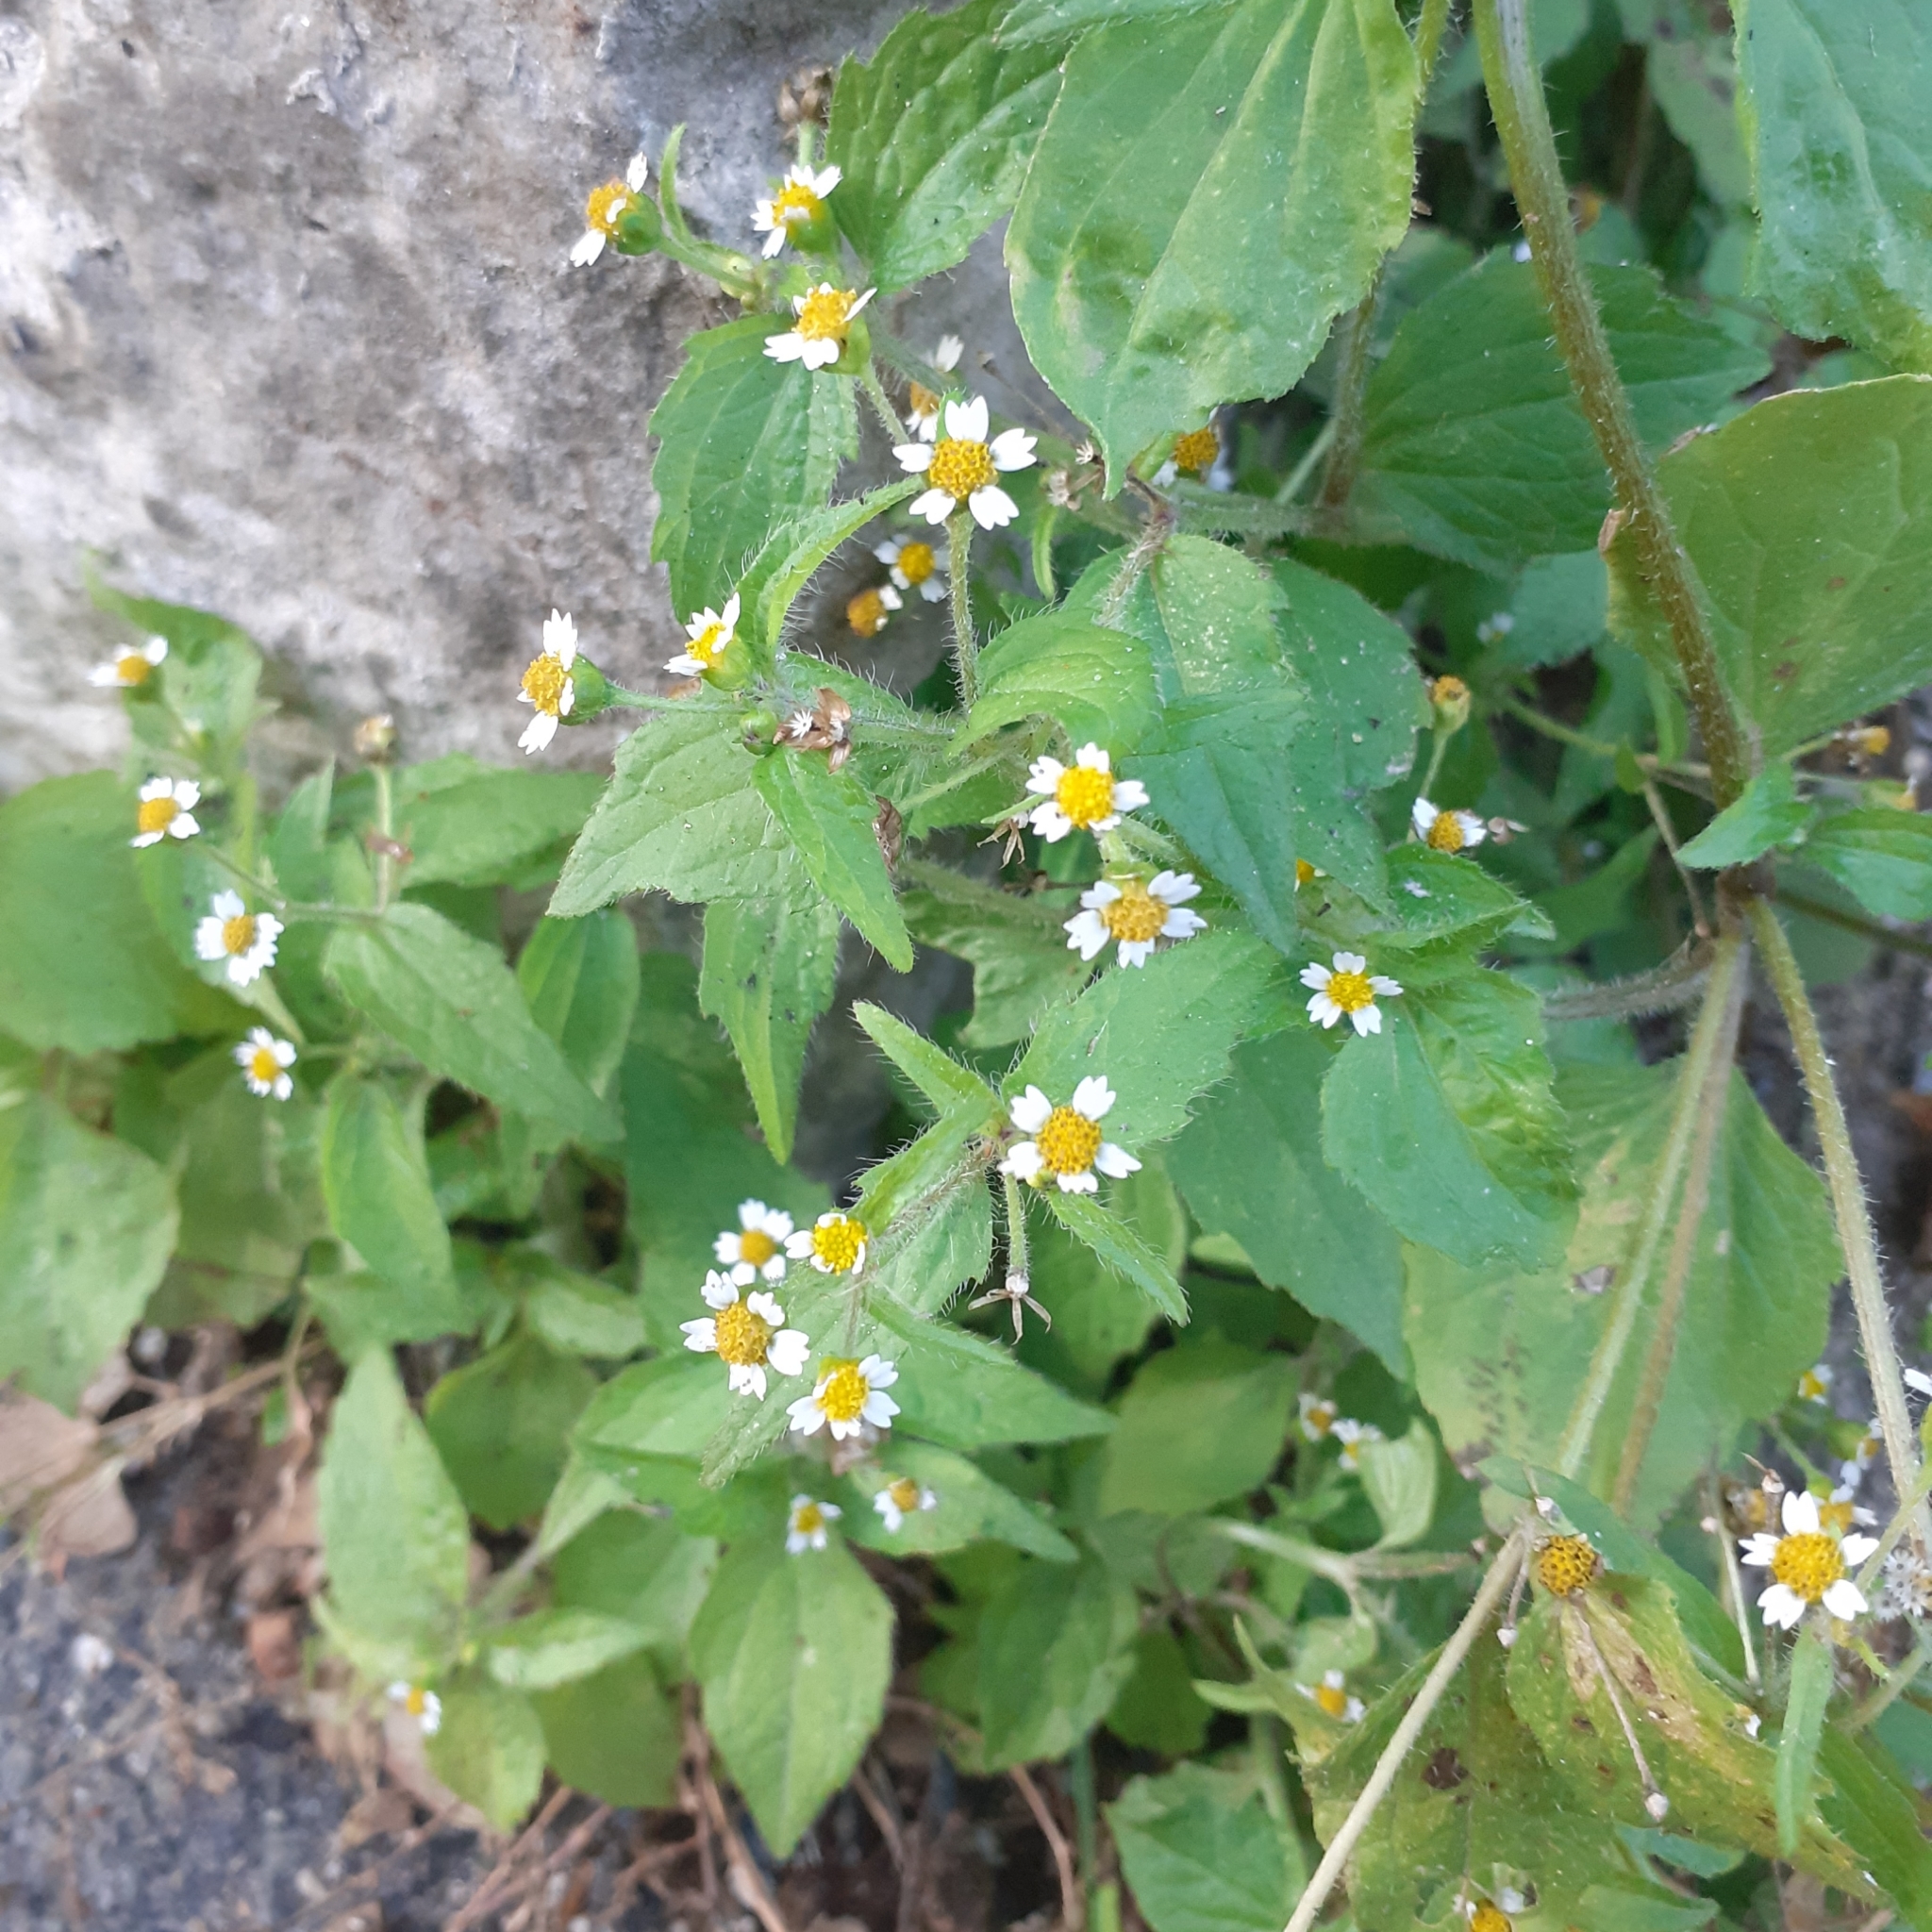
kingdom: Plantae
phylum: Tracheophyta
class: Magnoliopsida
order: Asterales
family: Asteraceae
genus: Galinsoga
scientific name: Galinsoga quadriradiata
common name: Shaggy soldier
